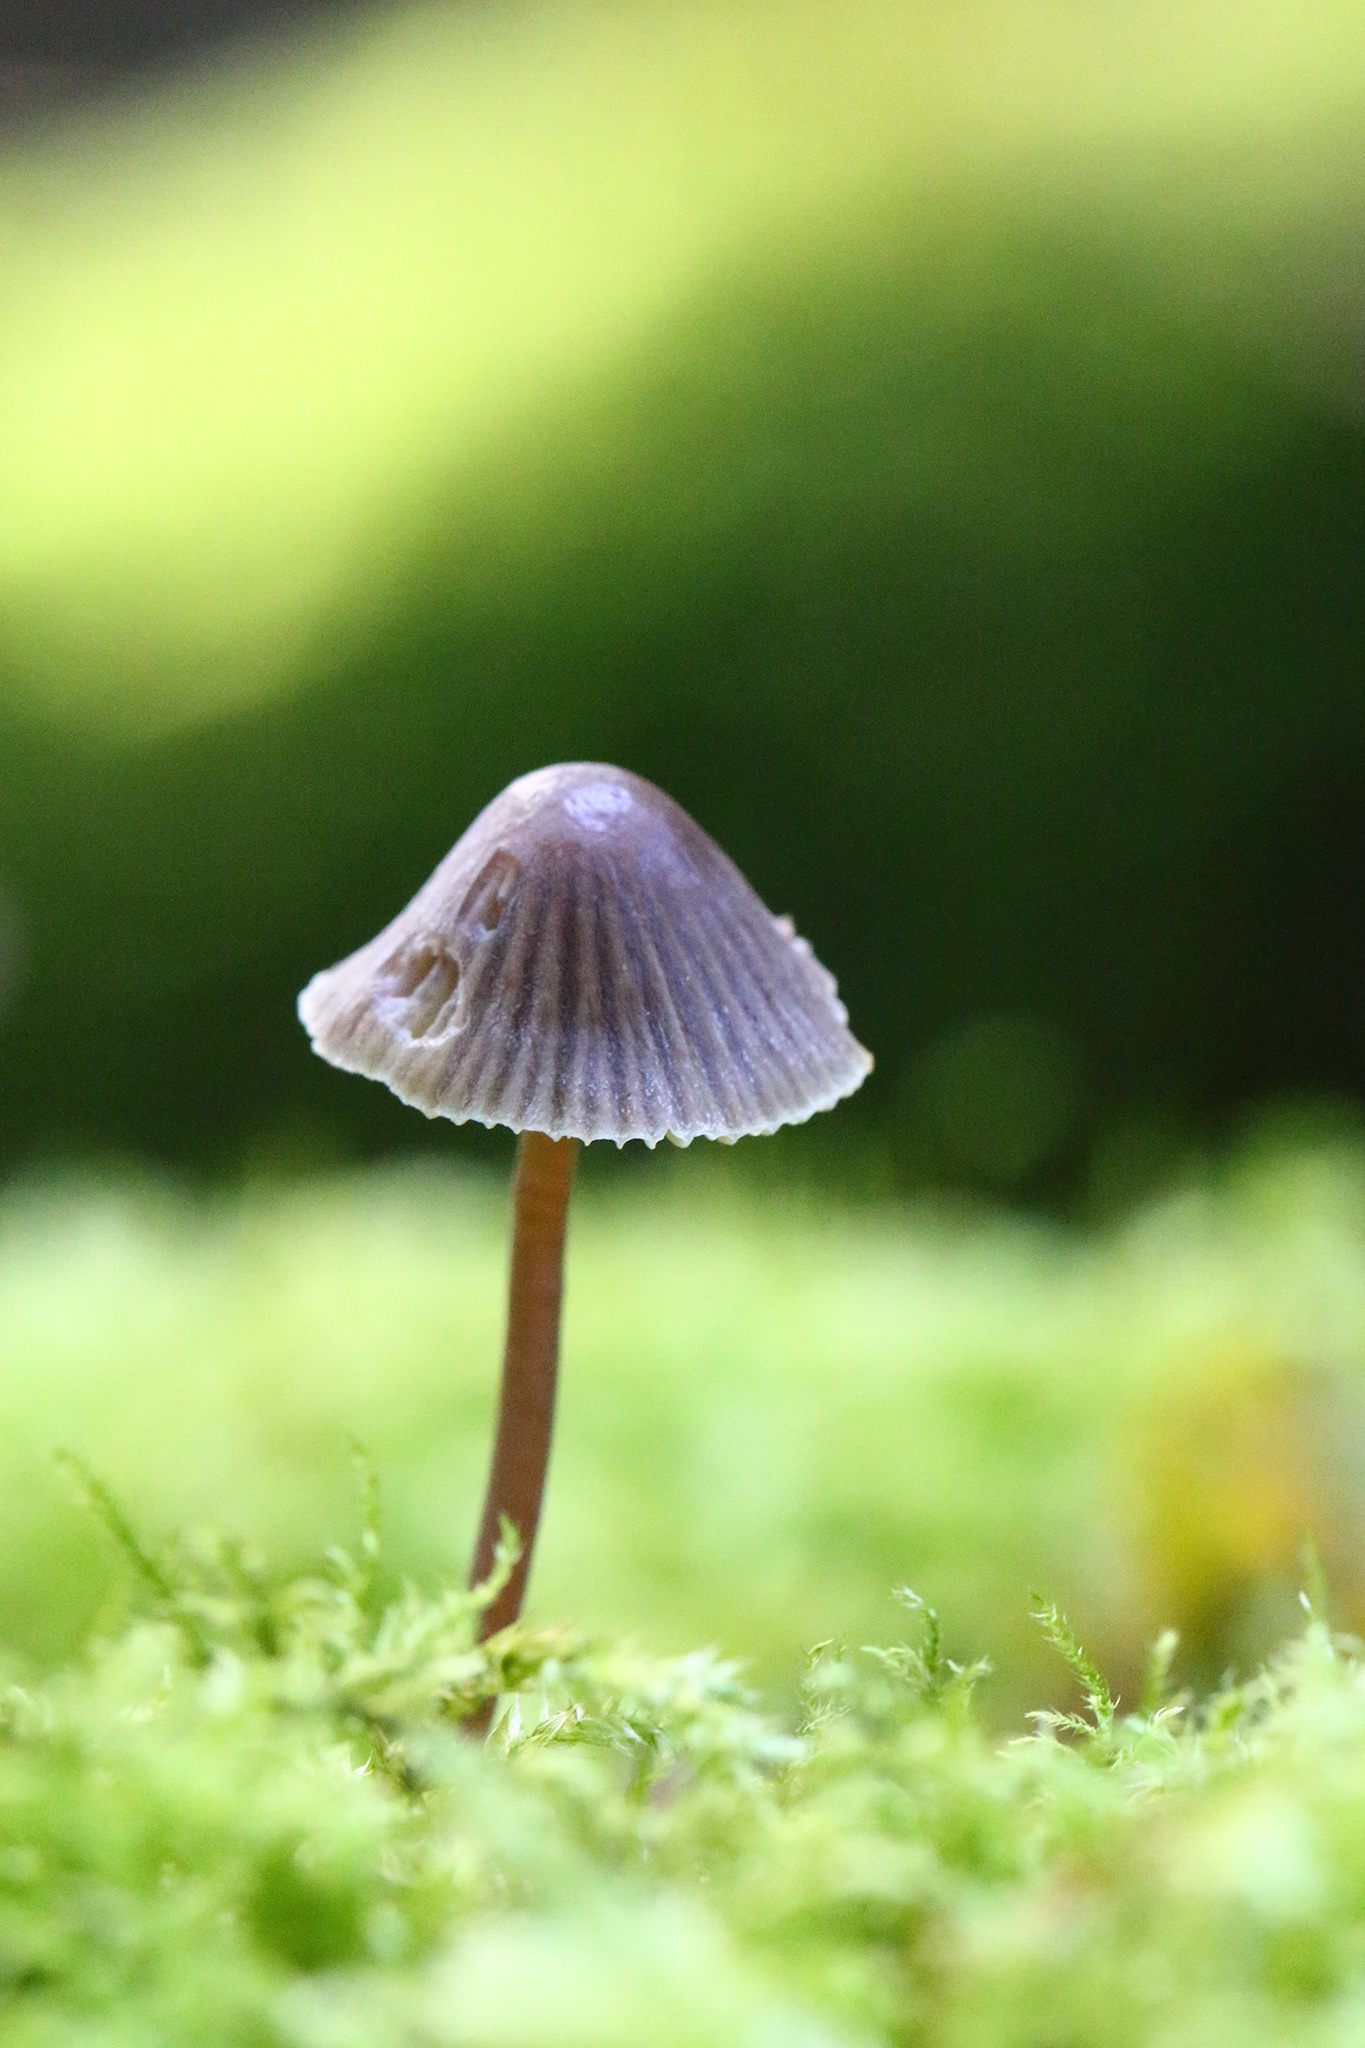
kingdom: Fungi
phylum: Basidiomycota
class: Agaricomycetes
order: Agaricales
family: Mycenaceae
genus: Mycena
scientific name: Mycena leptocephala
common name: Nitrous bonnet
